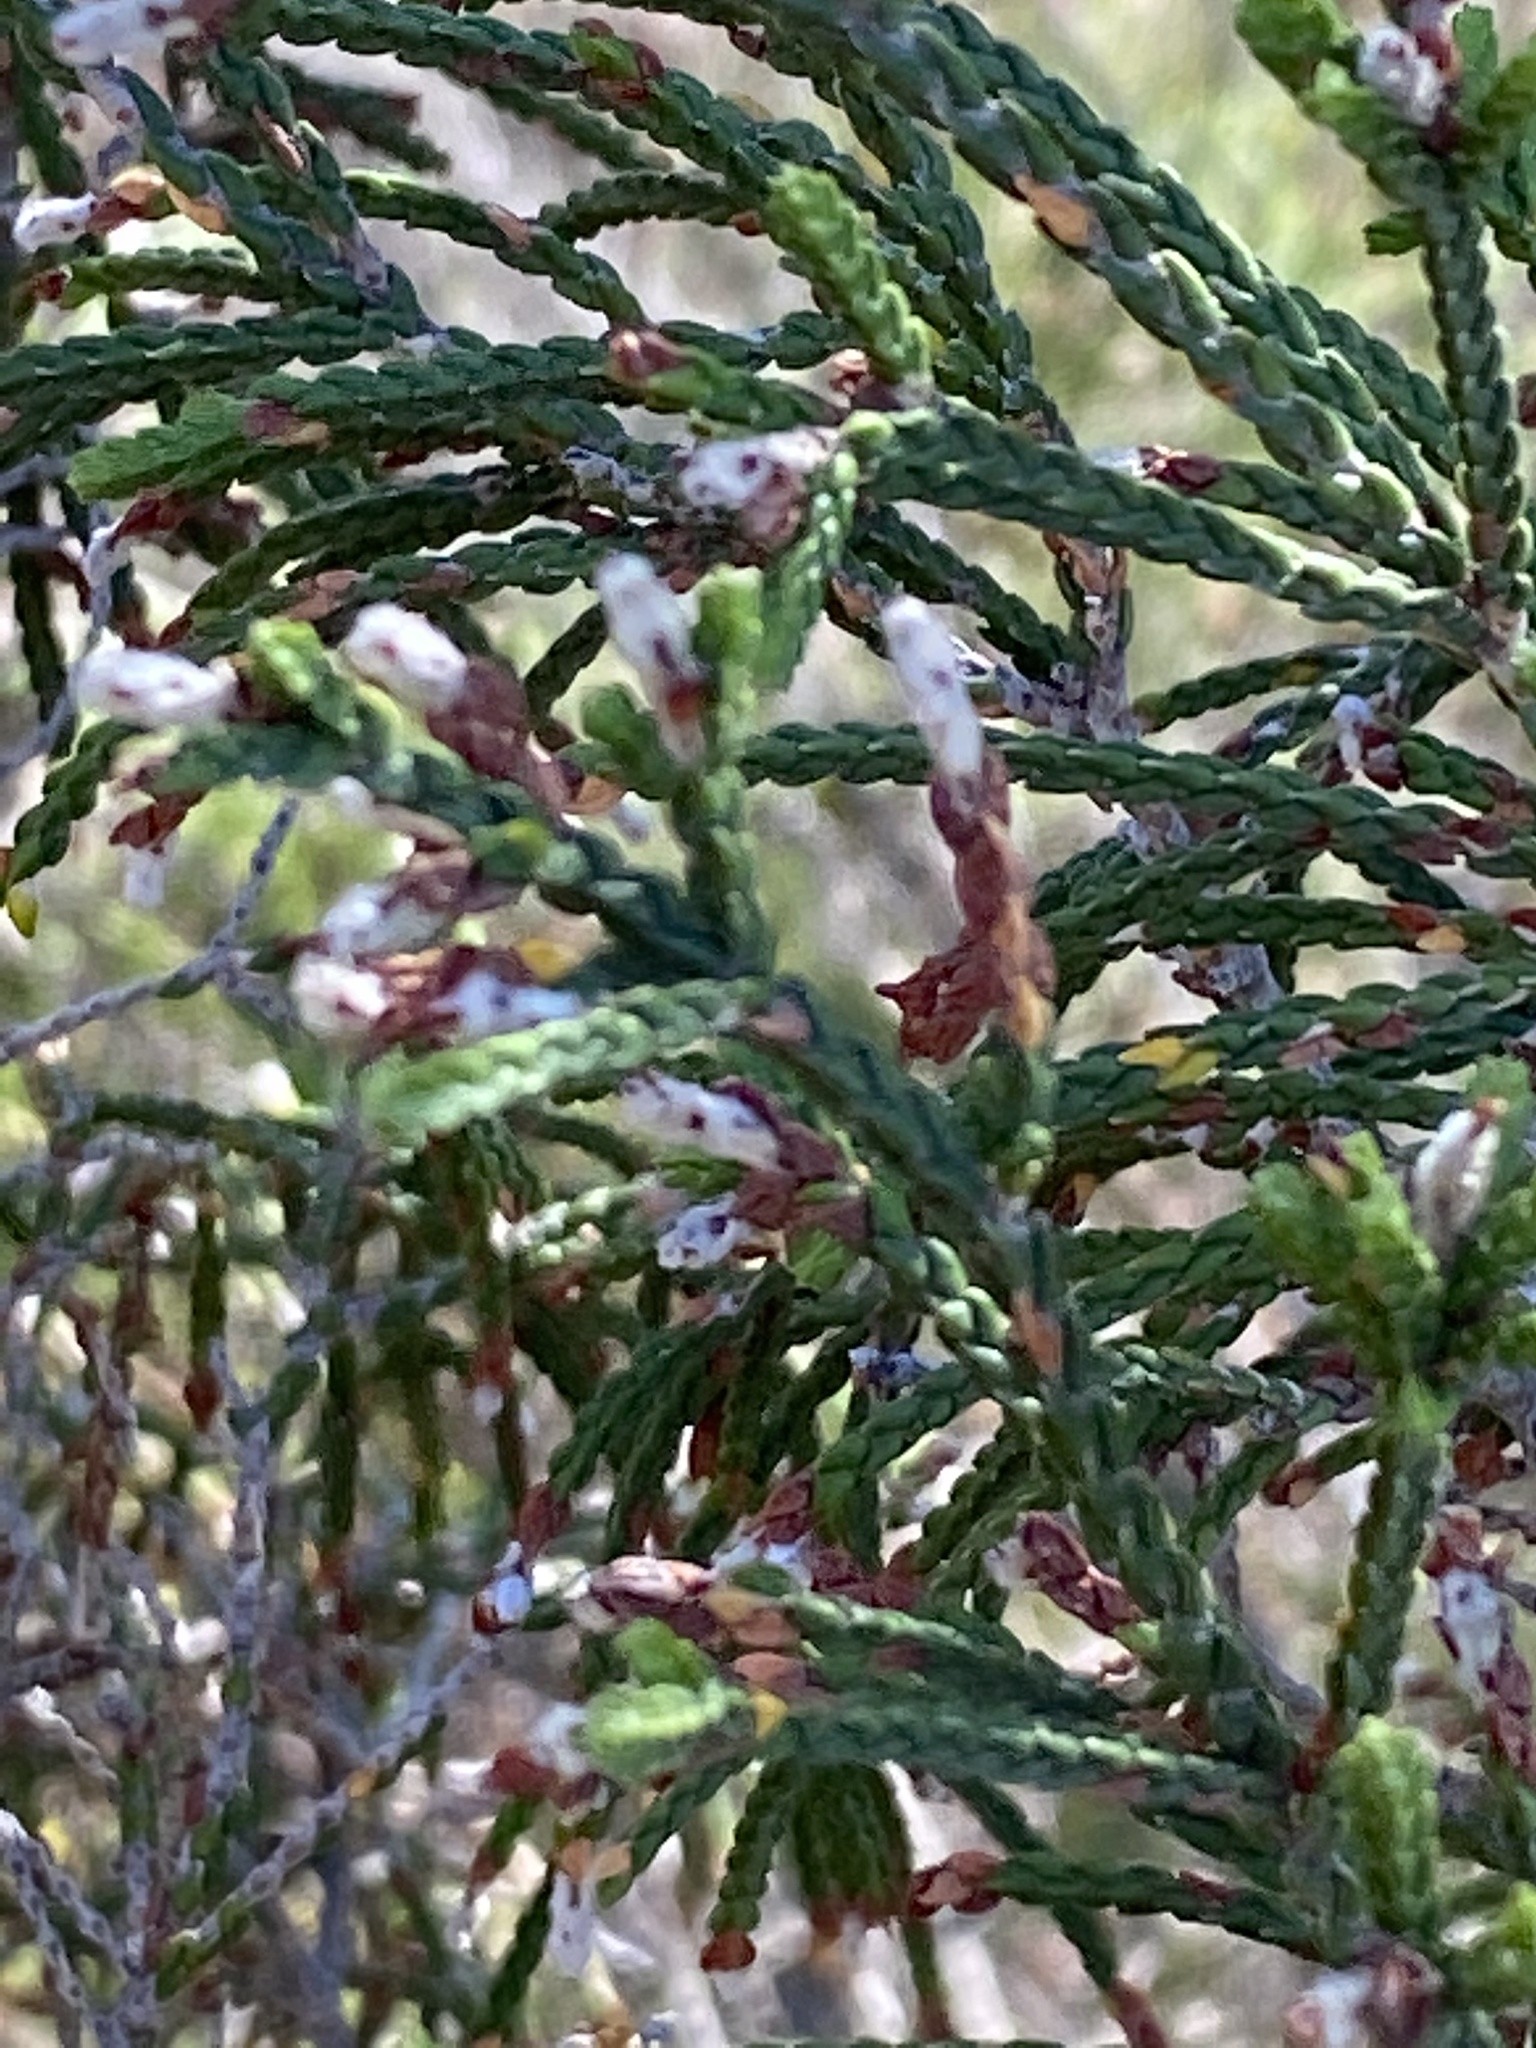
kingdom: Plantae
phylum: Tracheophyta
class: Magnoliopsida
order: Malvales
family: Thymelaeaceae
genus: Passerina
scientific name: Passerina rigida
